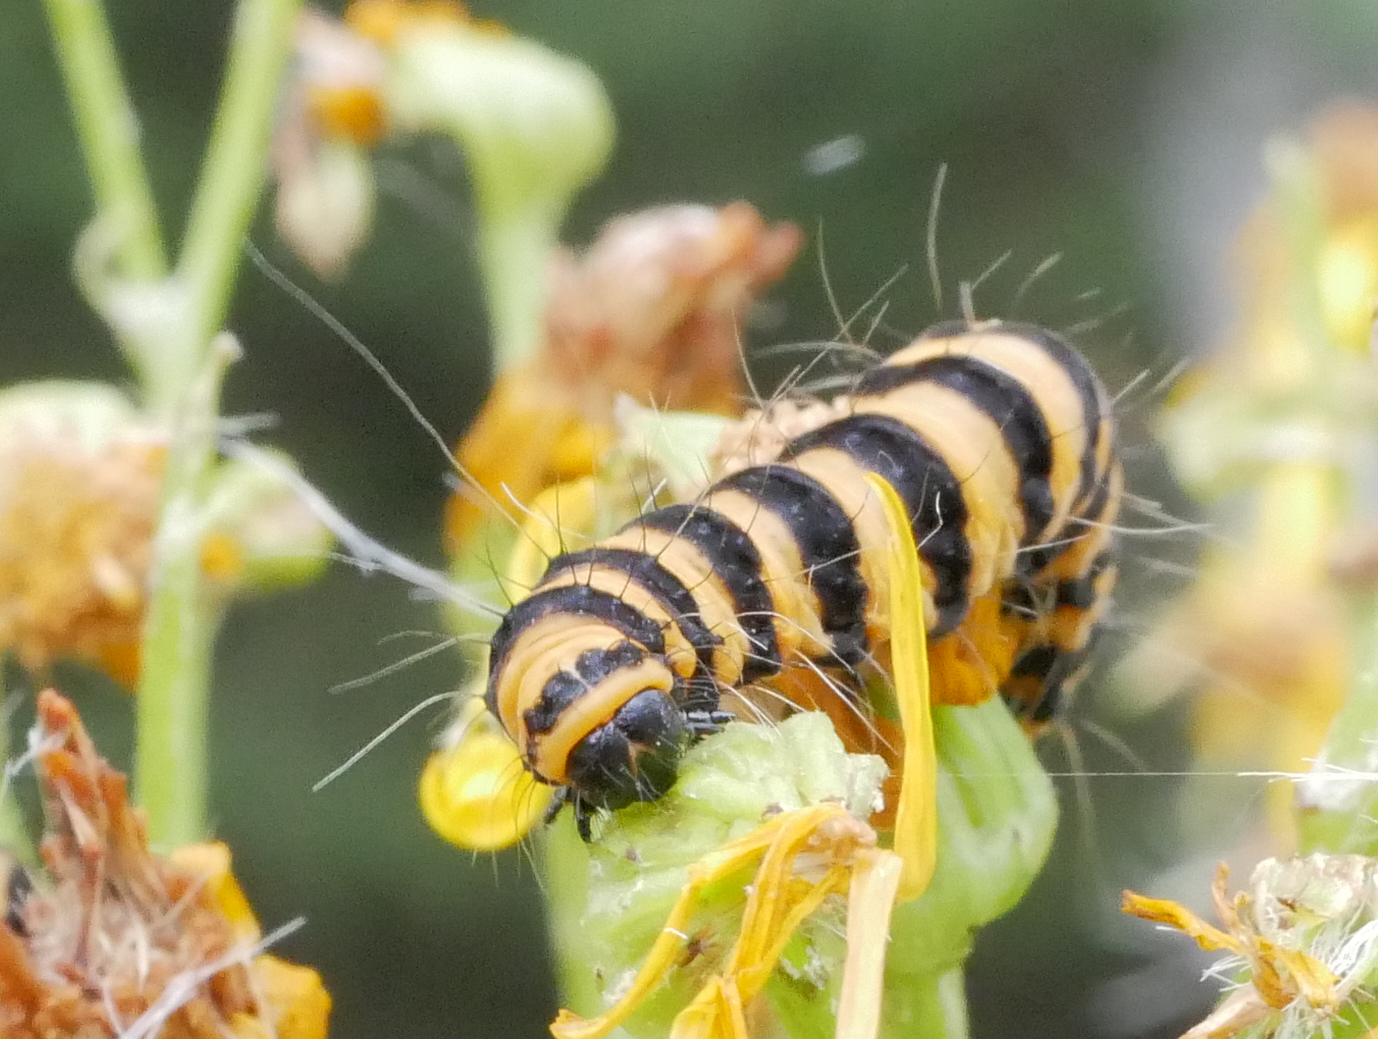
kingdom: Animalia
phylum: Arthropoda
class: Insecta
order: Lepidoptera
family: Erebidae
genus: Tyria
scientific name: Tyria jacobaeae
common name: Cinnabar
